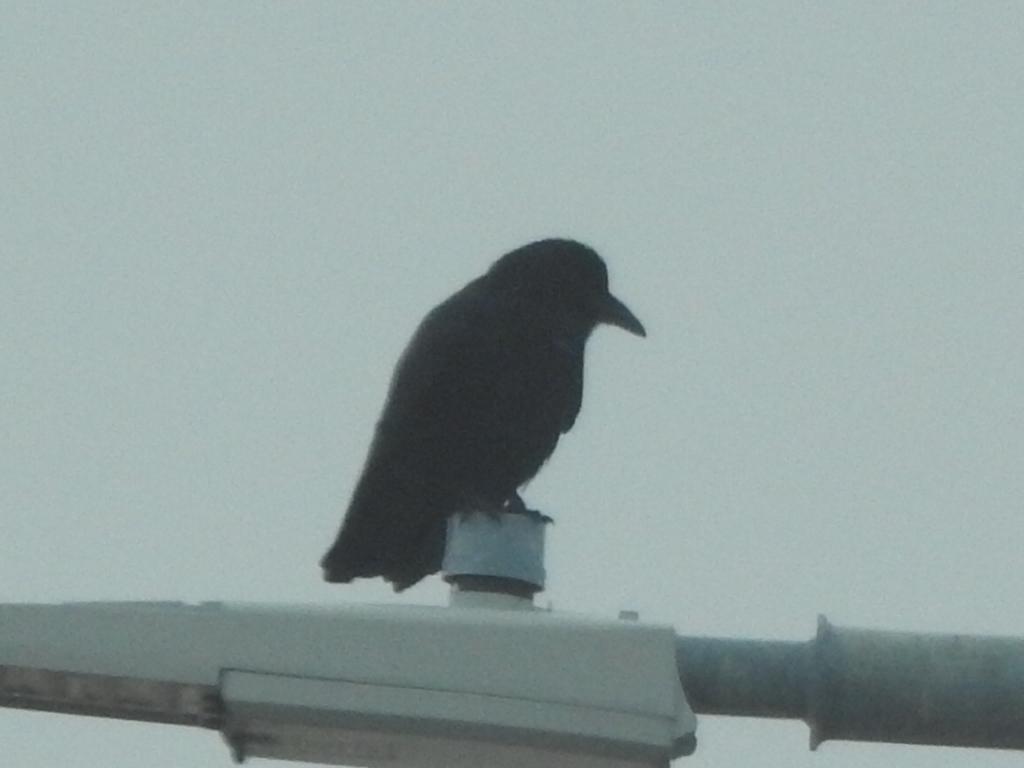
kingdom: Animalia
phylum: Chordata
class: Aves
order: Passeriformes
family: Corvidae
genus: Corvus
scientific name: Corvus brachyrhynchos
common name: American crow
